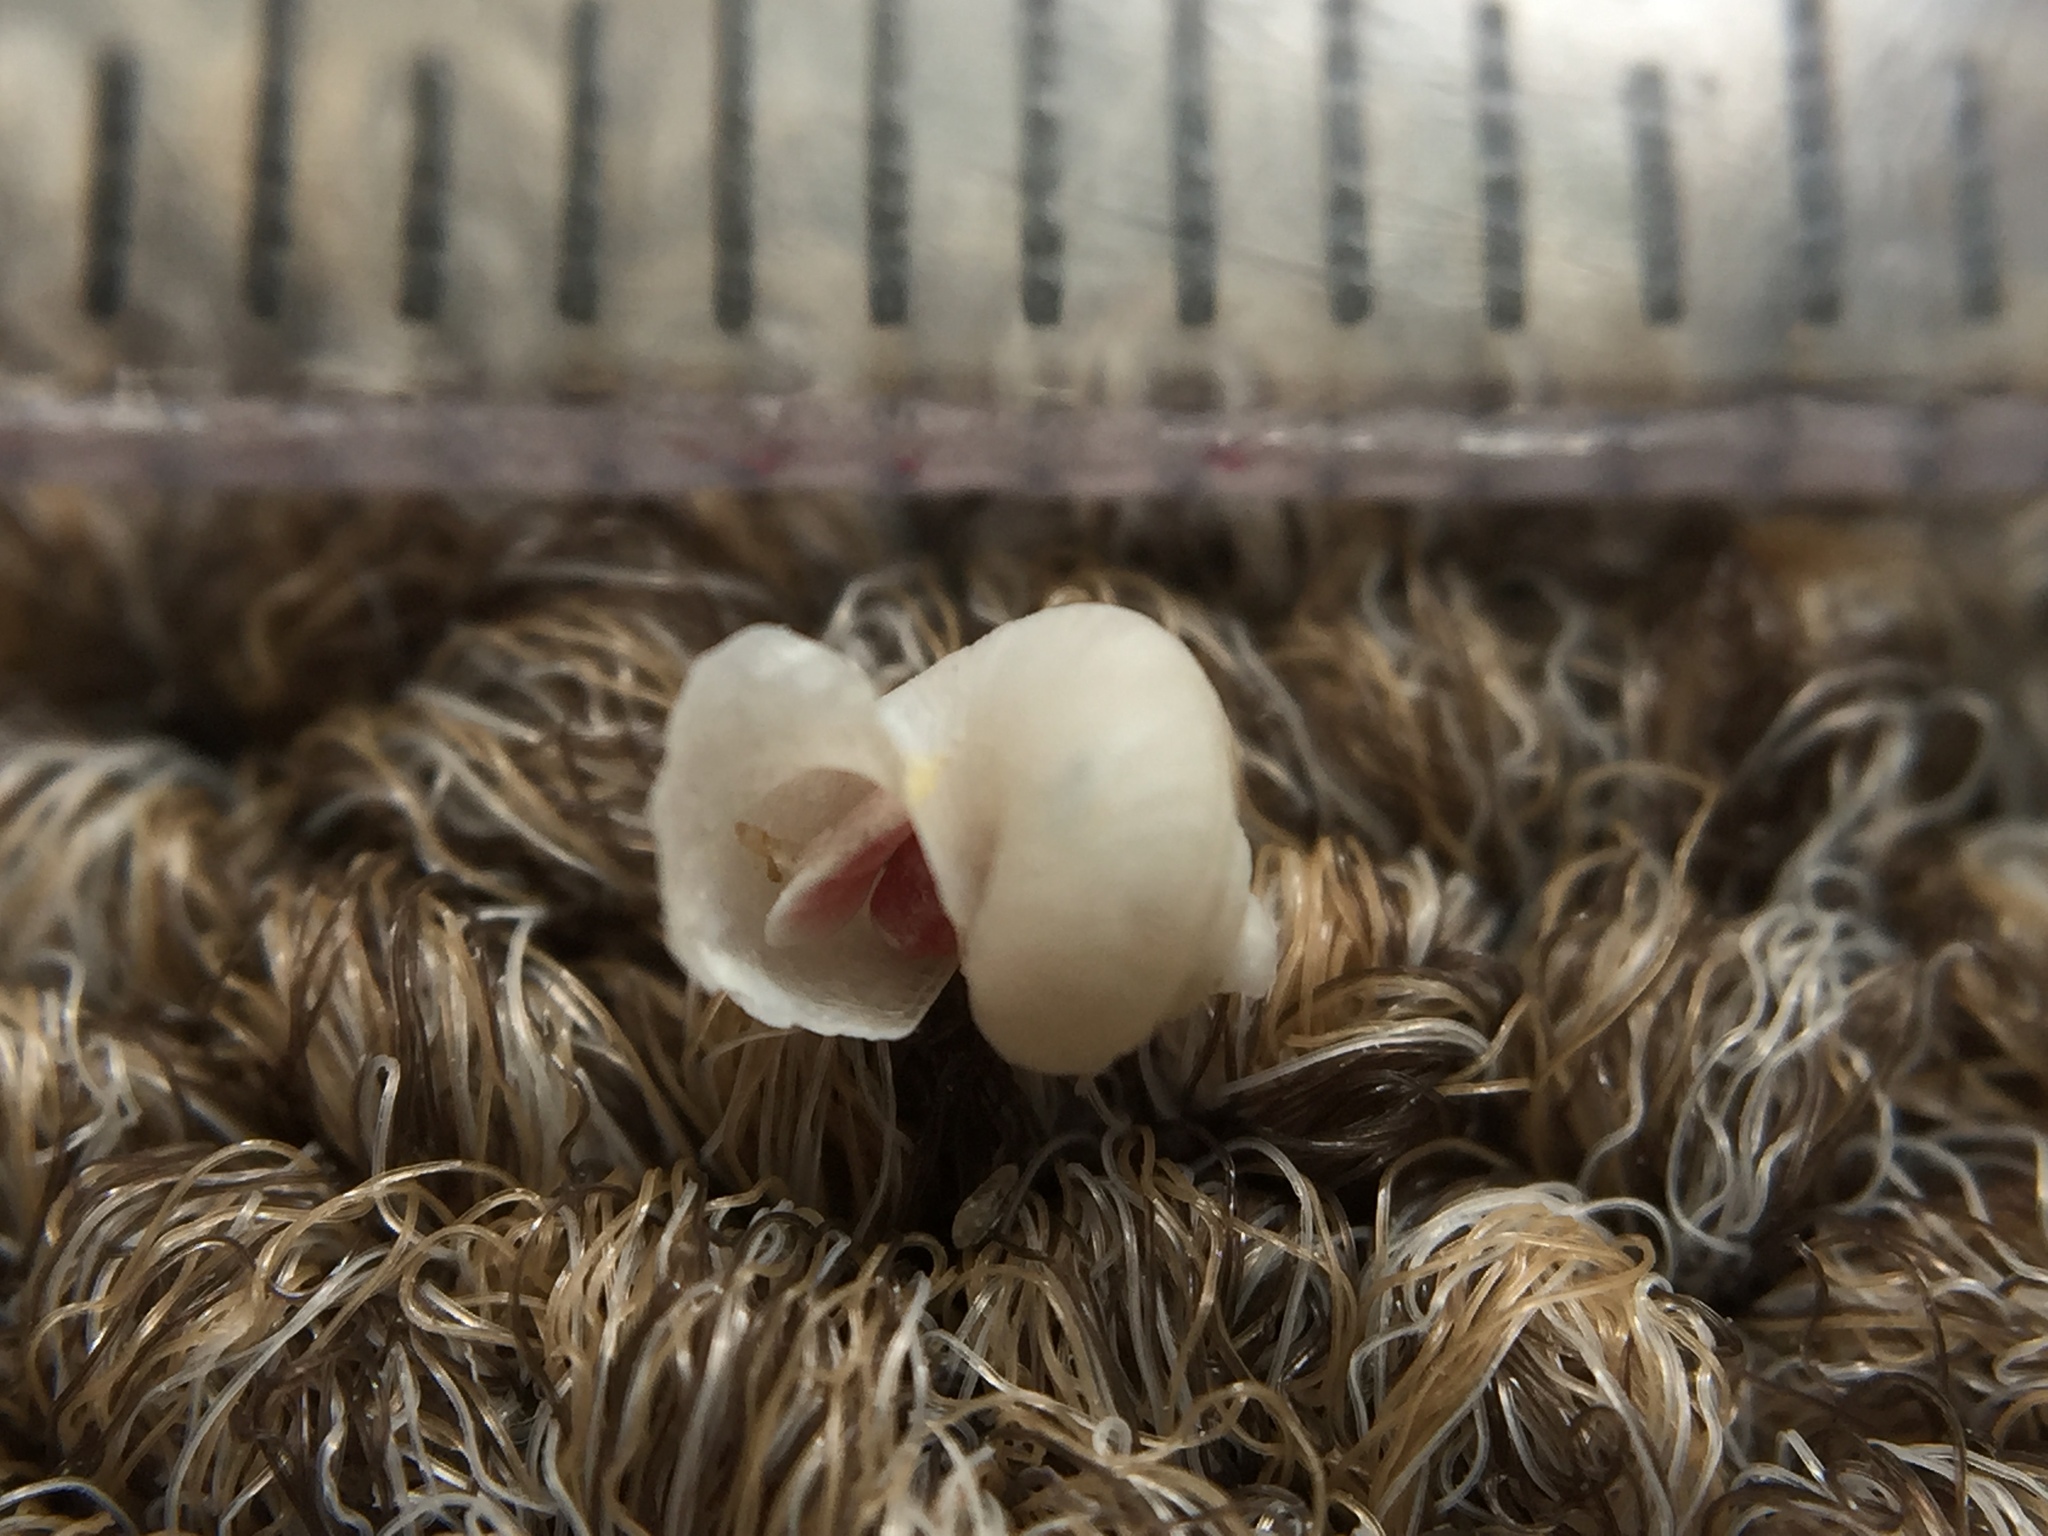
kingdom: Animalia
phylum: Mollusca
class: Gastropoda
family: Siliquariidae
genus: Tenagodus
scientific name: Tenagodus weldii
